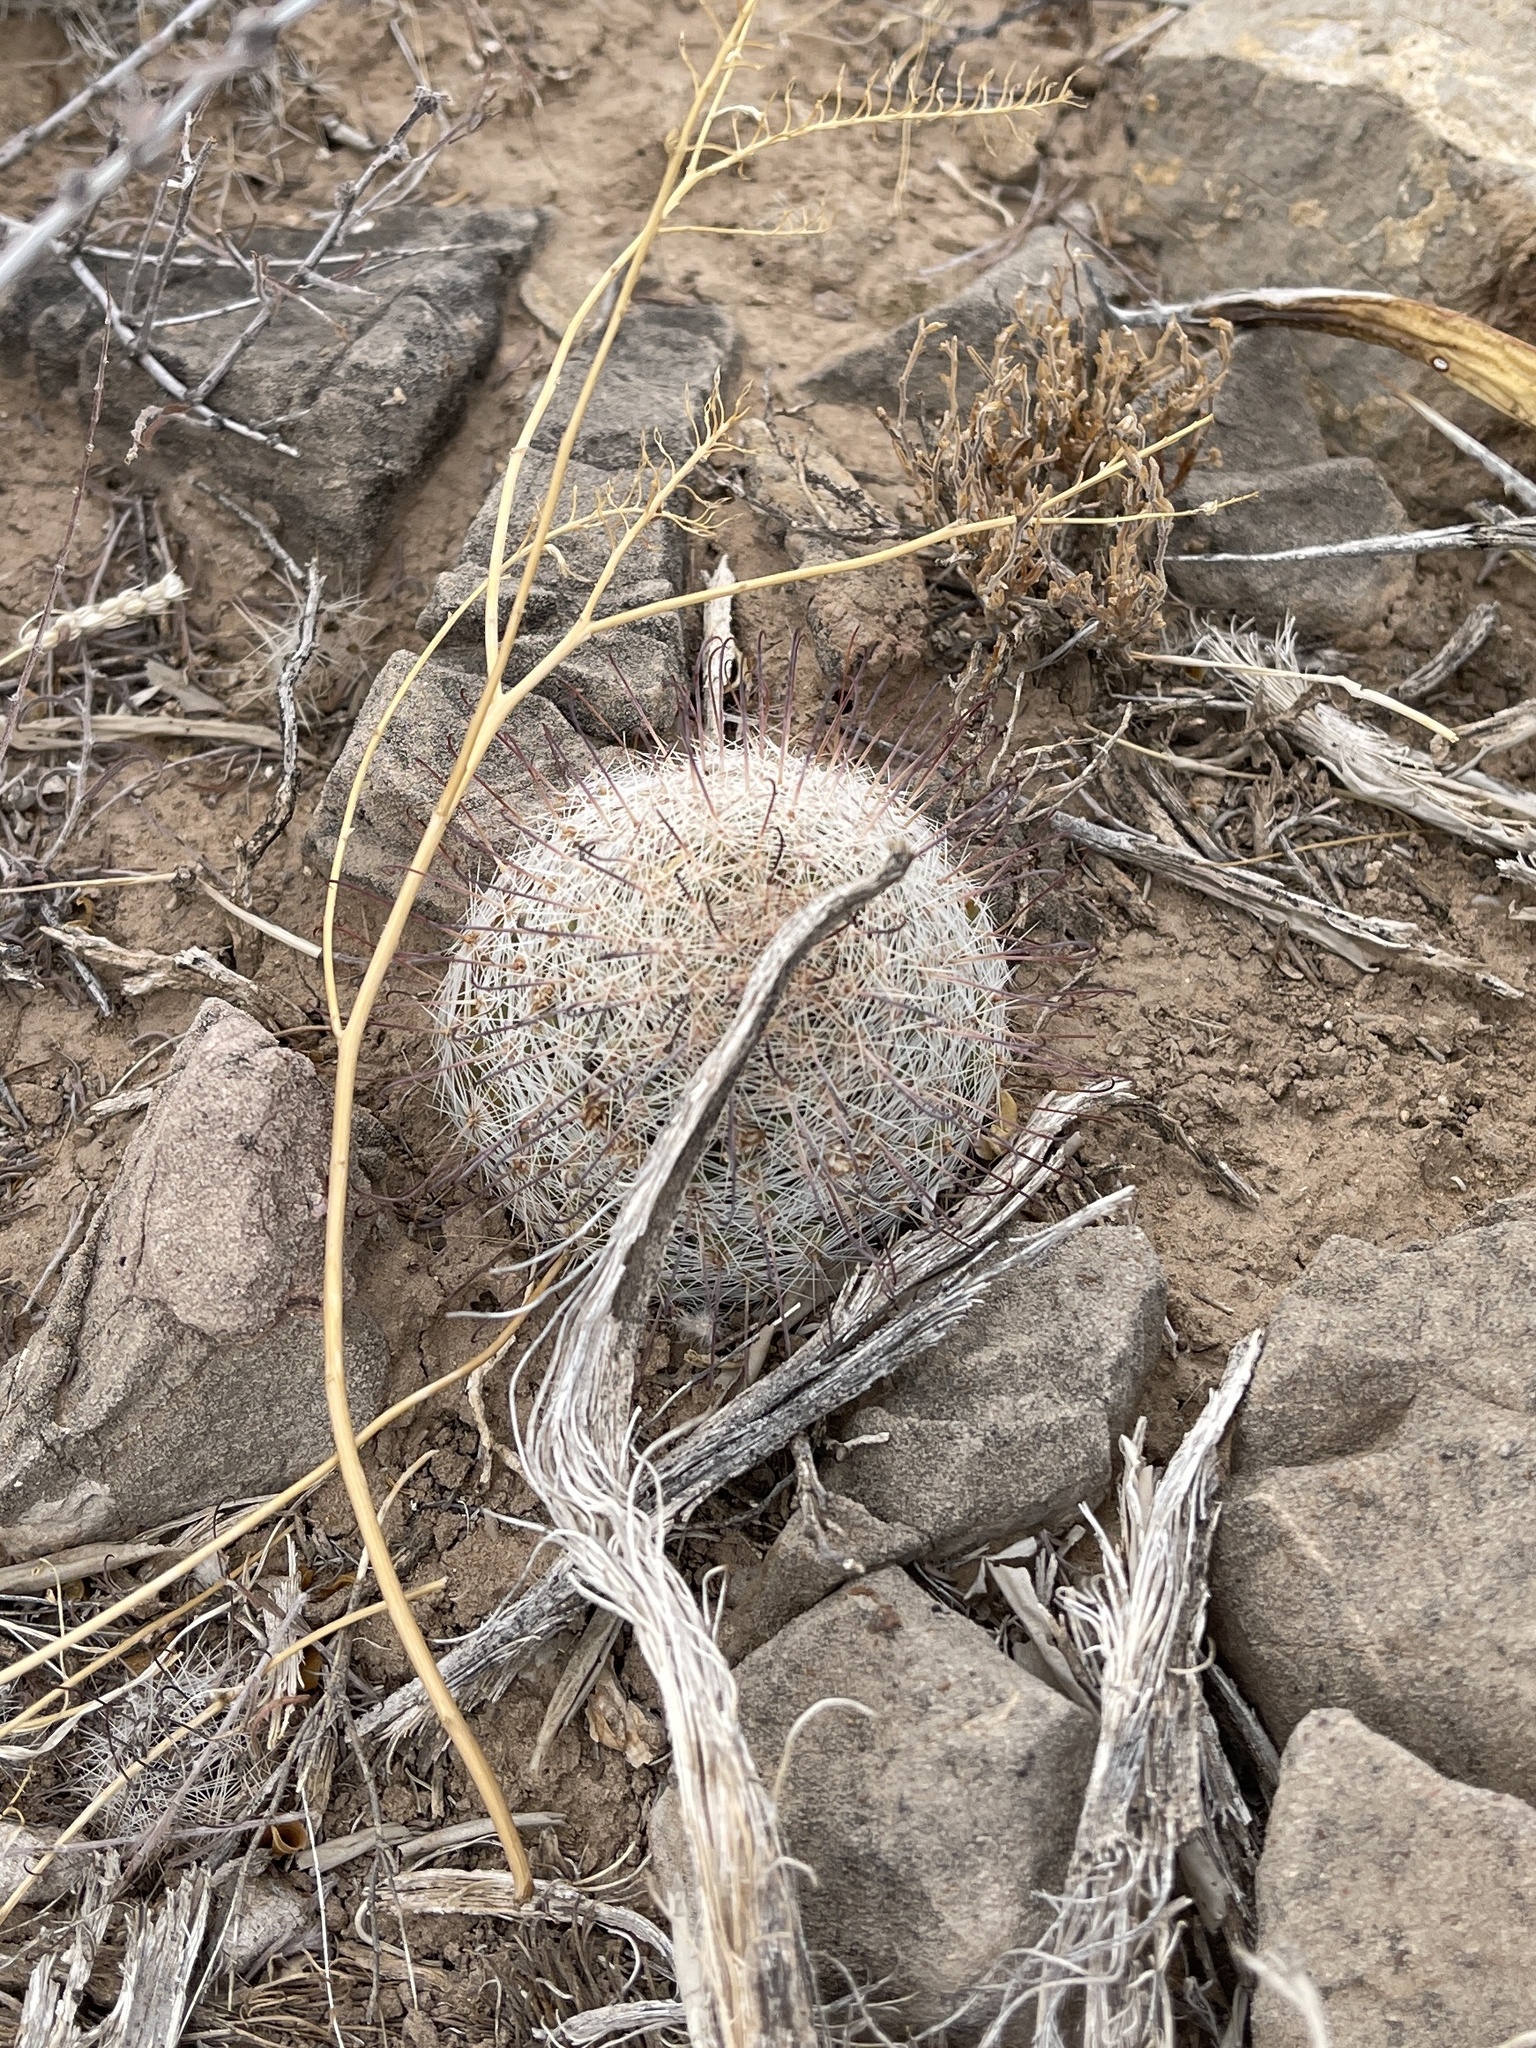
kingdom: Plantae
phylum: Tracheophyta
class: Magnoliopsida
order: Caryophyllales
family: Cactaceae
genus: Cochemiea
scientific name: Cochemiea grahamii
